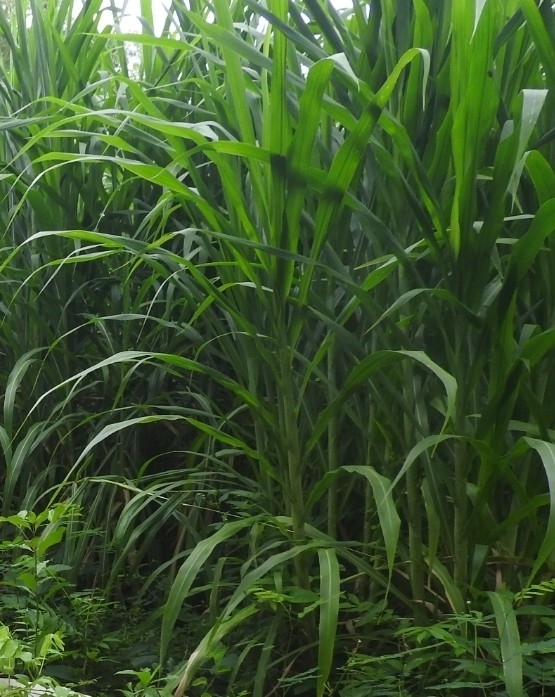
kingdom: Plantae
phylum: Tracheophyta
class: Liliopsida
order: Poales
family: Poaceae
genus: Cymbopogon
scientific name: Cymbopogon citratus
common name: Lemon grass
